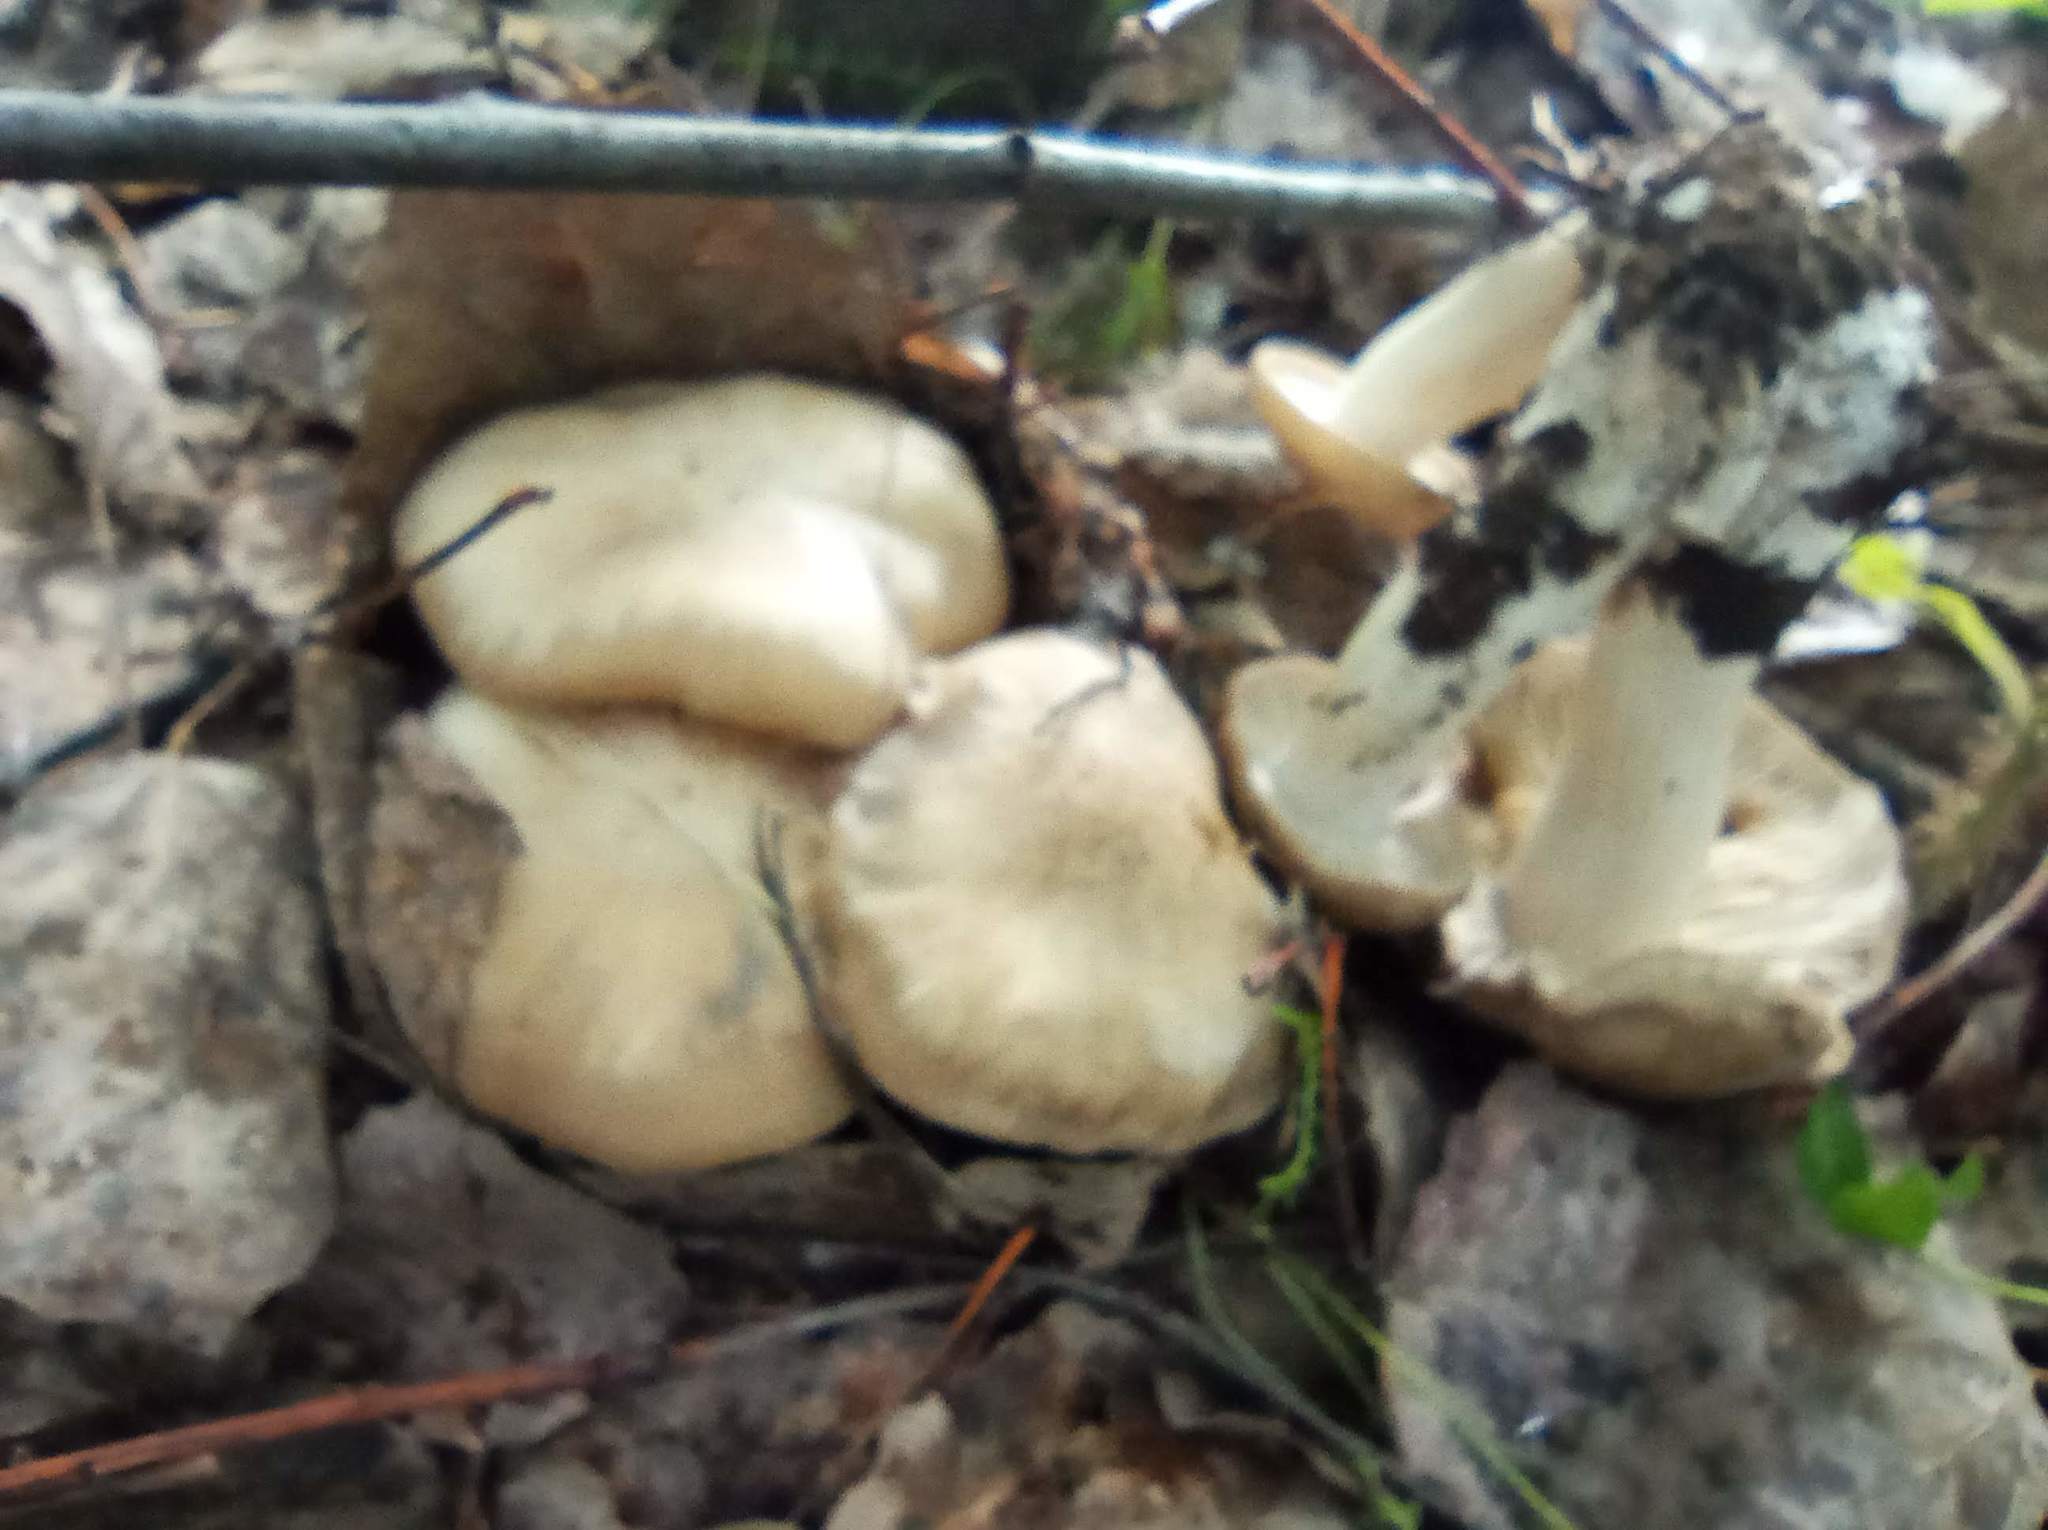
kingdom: Fungi
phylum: Basidiomycota
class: Agaricomycetes
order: Agaricales
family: Lyophyllaceae
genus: Lyophyllum
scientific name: Lyophyllum decastes
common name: Clustered domecap
